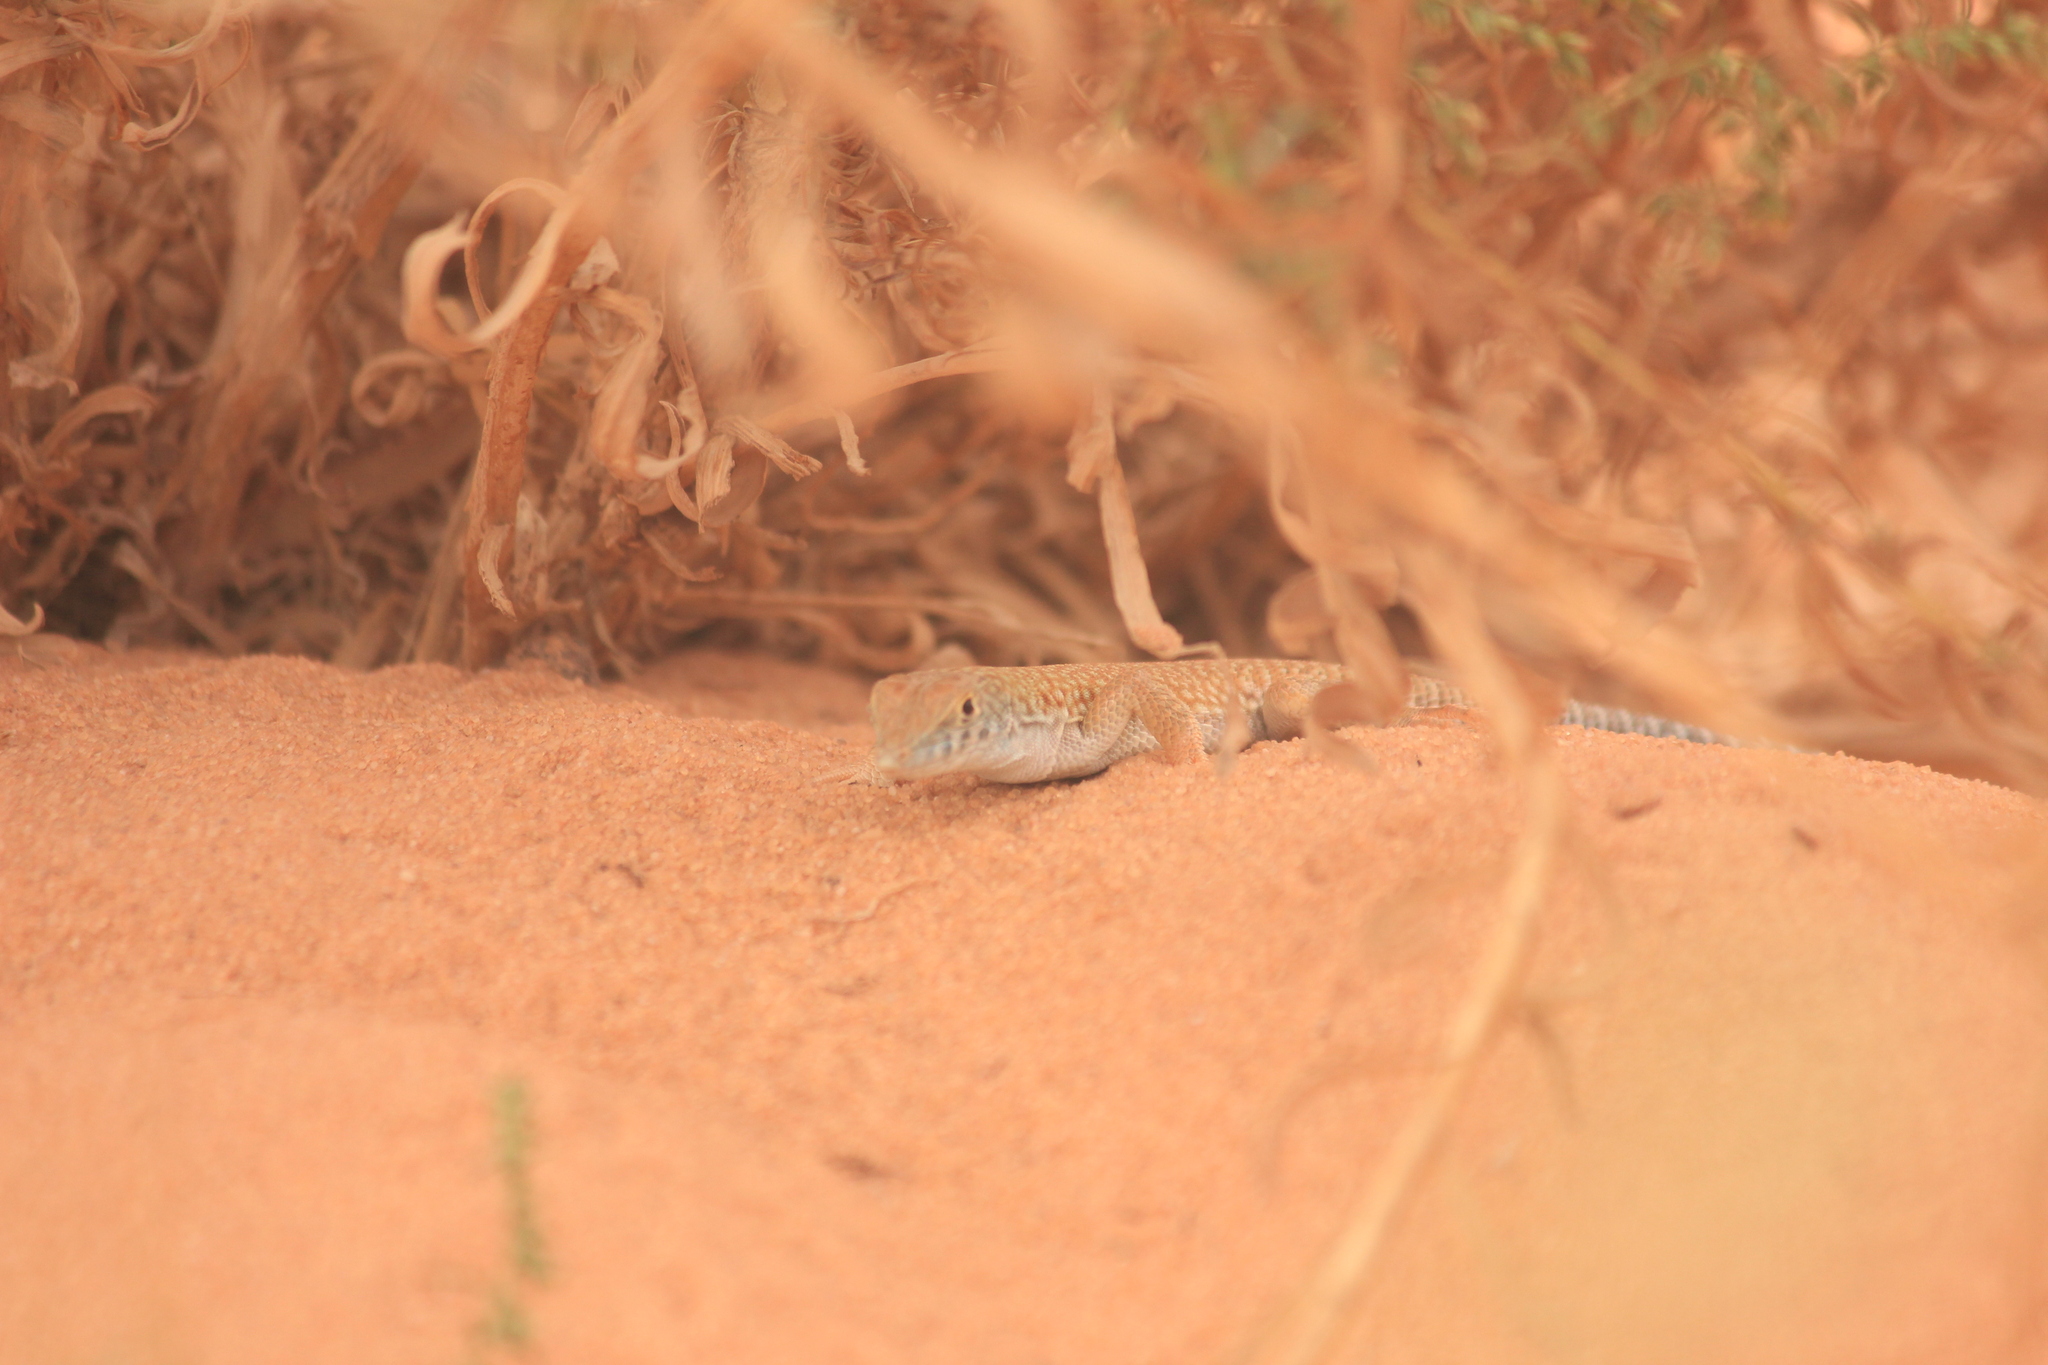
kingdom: Animalia
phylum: Chordata
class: Squamata
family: Lacertidae
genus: Acanthodactylus
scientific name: Acanthodactylus schmidti
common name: Schmidt's fringe-toed lizard
